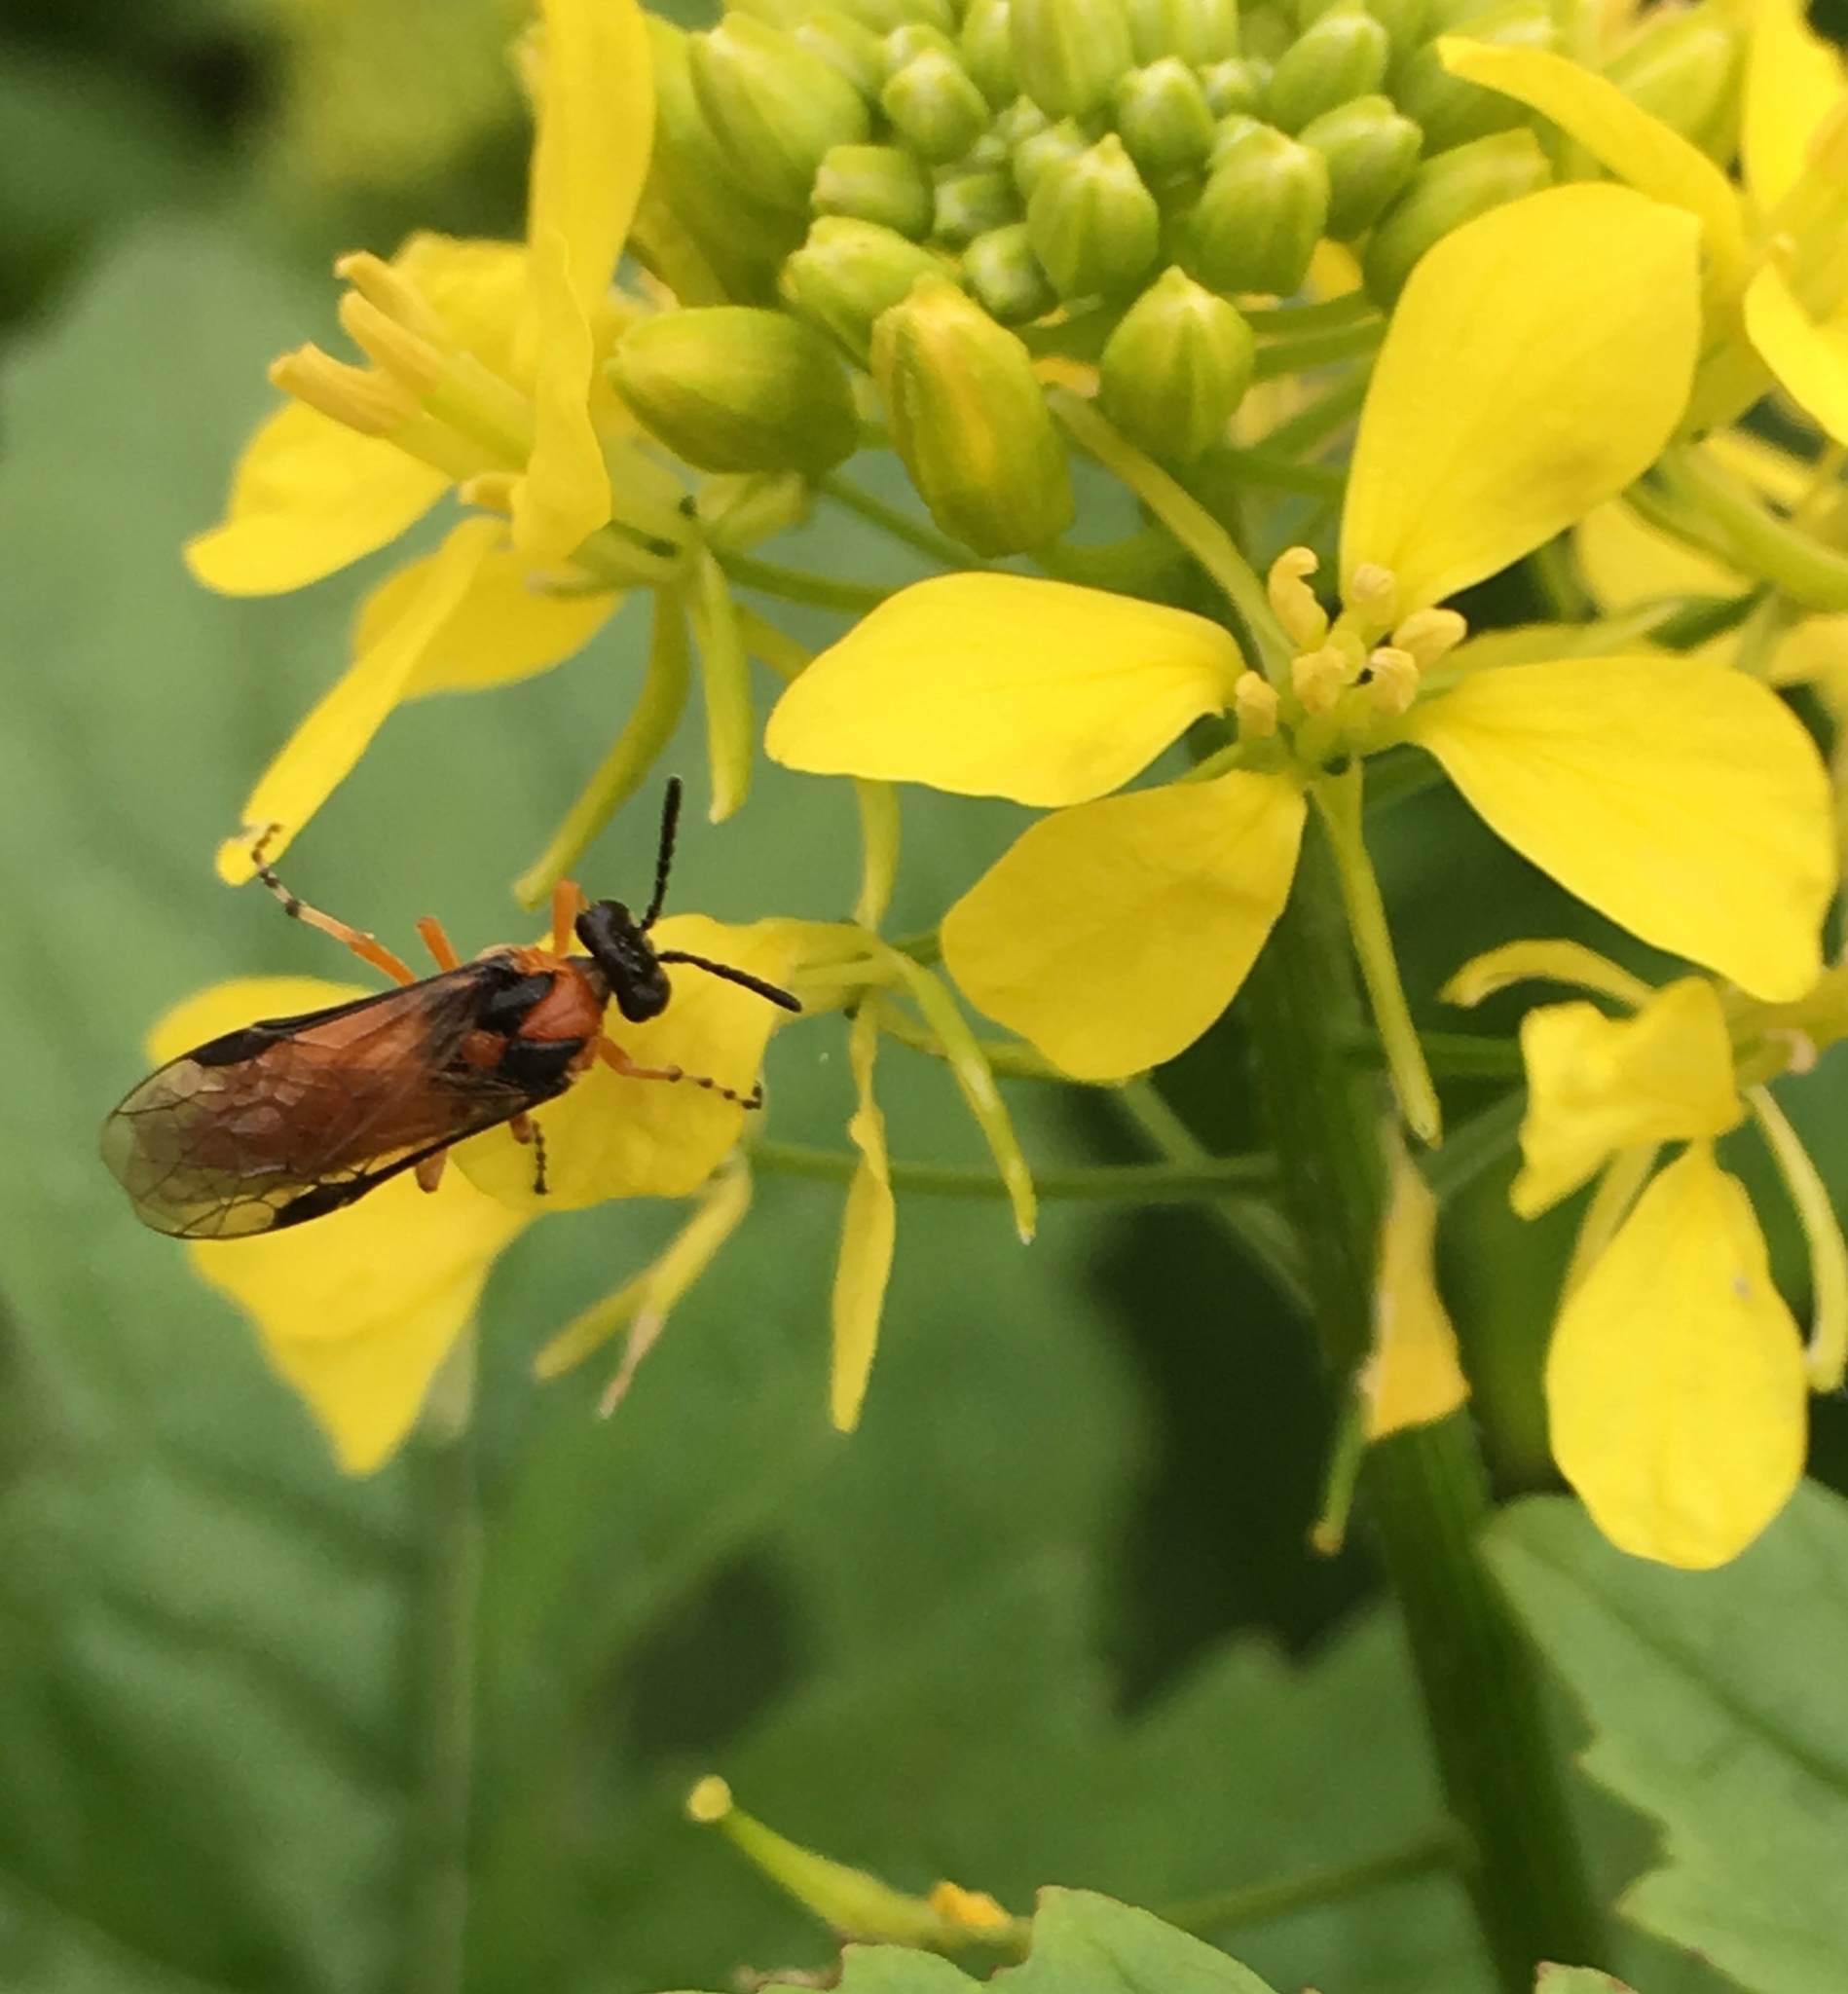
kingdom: Animalia
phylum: Arthropoda
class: Insecta
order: Hymenoptera
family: Tenthredinidae
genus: Athalia
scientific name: Athalia rosae
